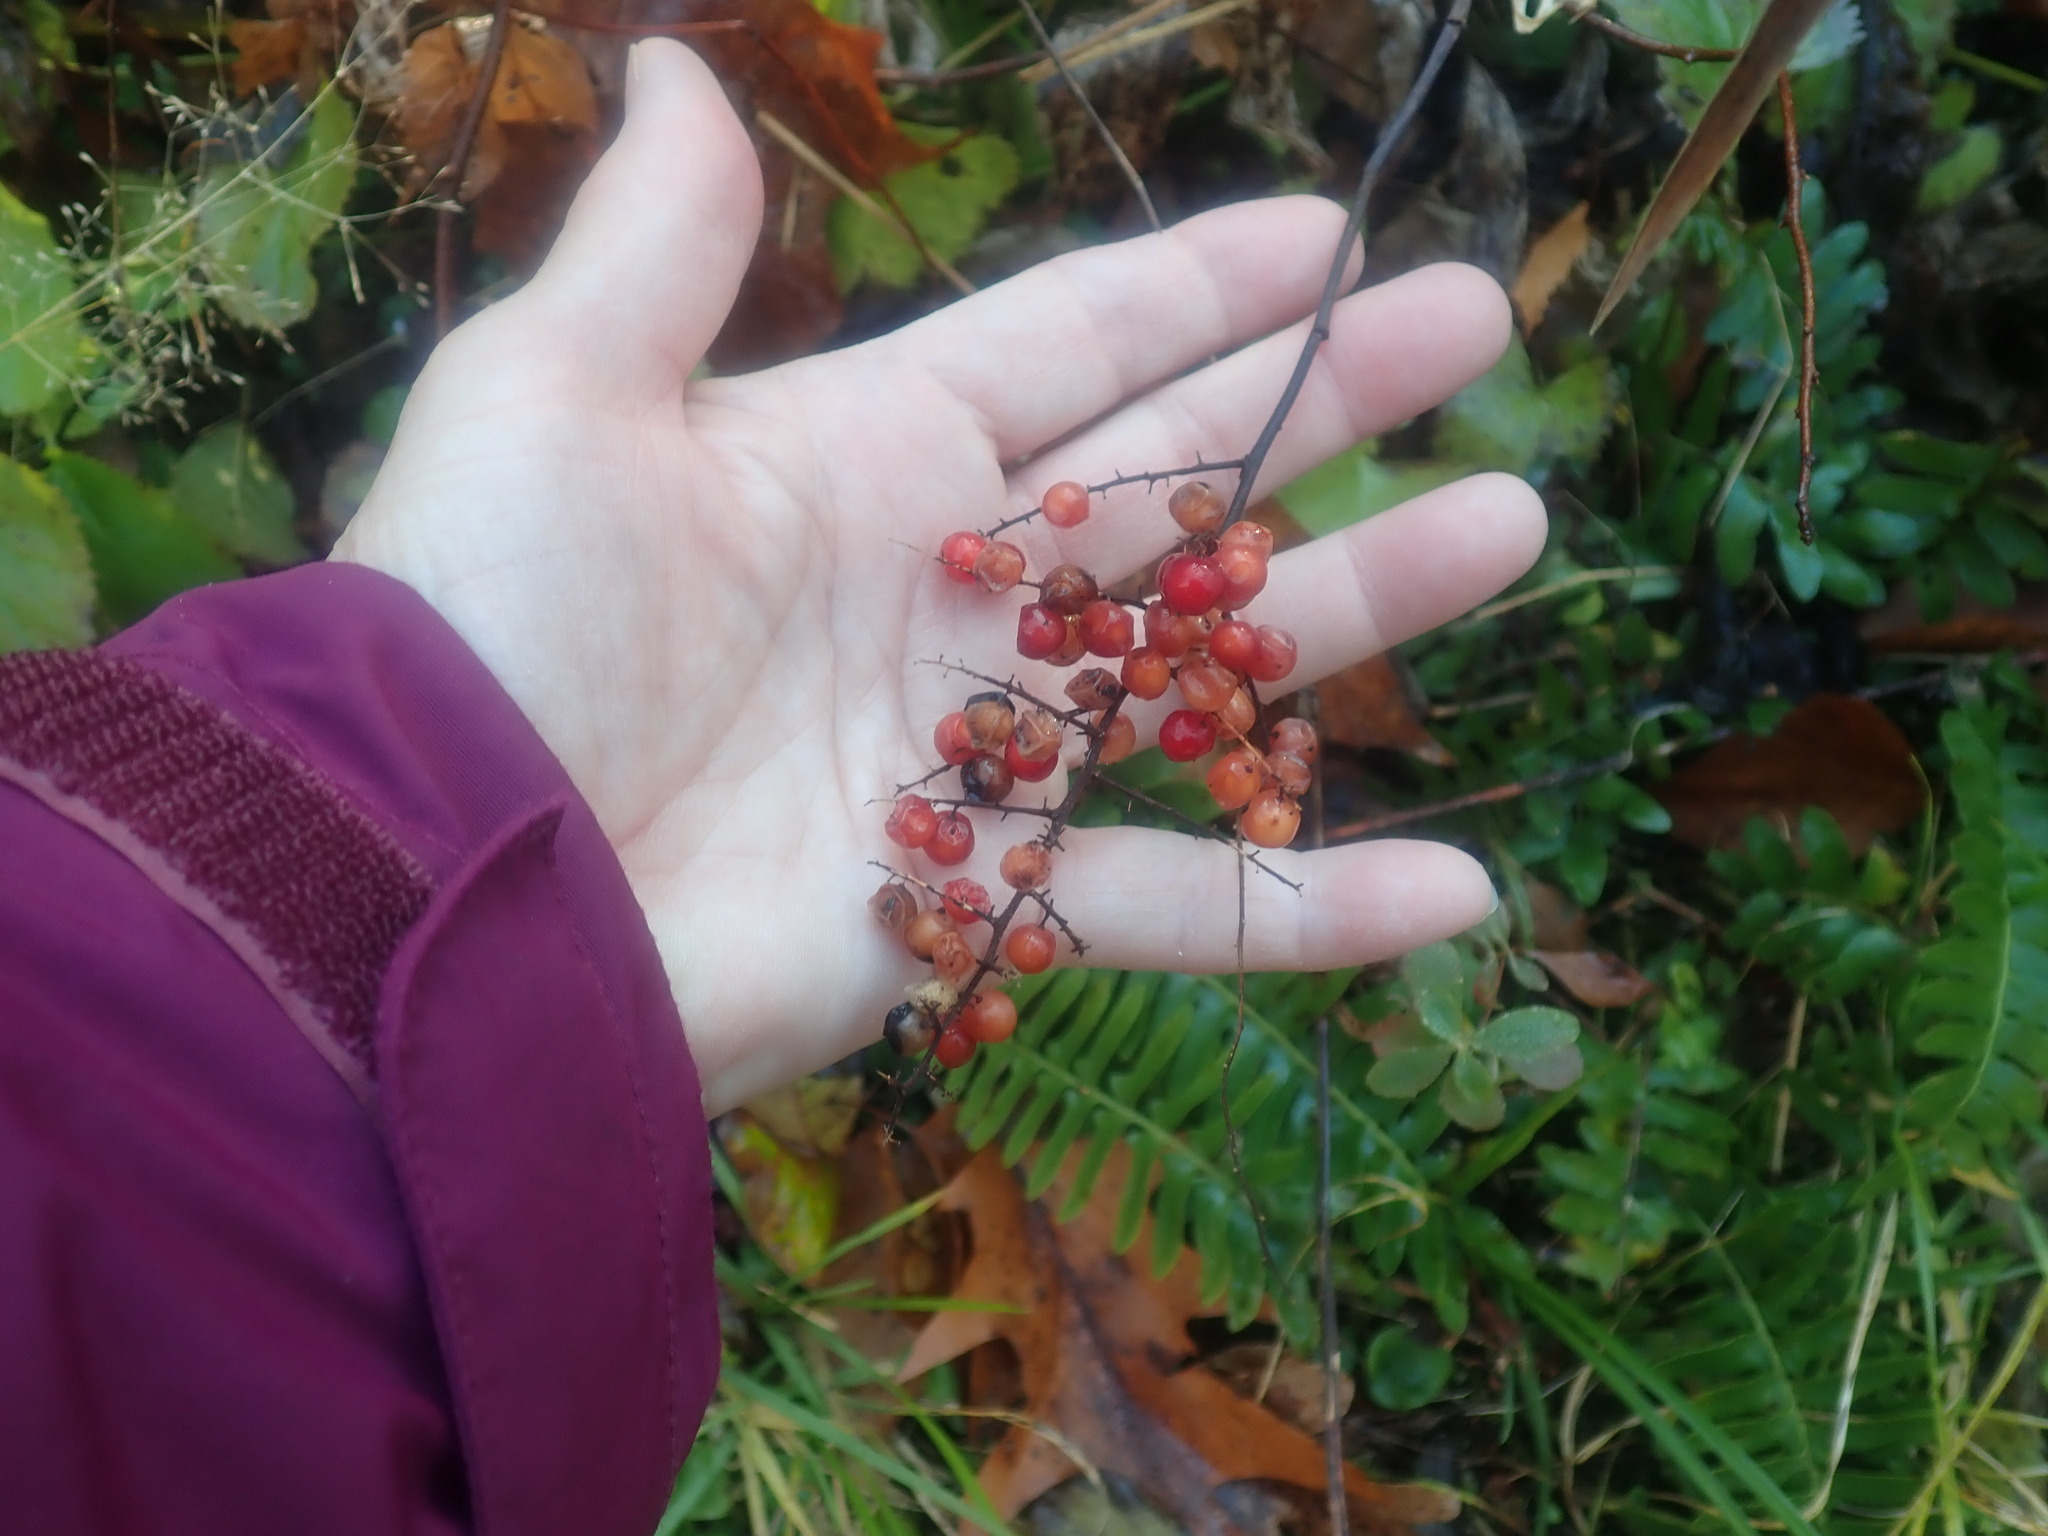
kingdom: Plantae
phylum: Tracheophyta
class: Liliopsida
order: Asparagales
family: Asparagaceae
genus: Maianthemum
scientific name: Maianthemum racemosum
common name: False spikenard
